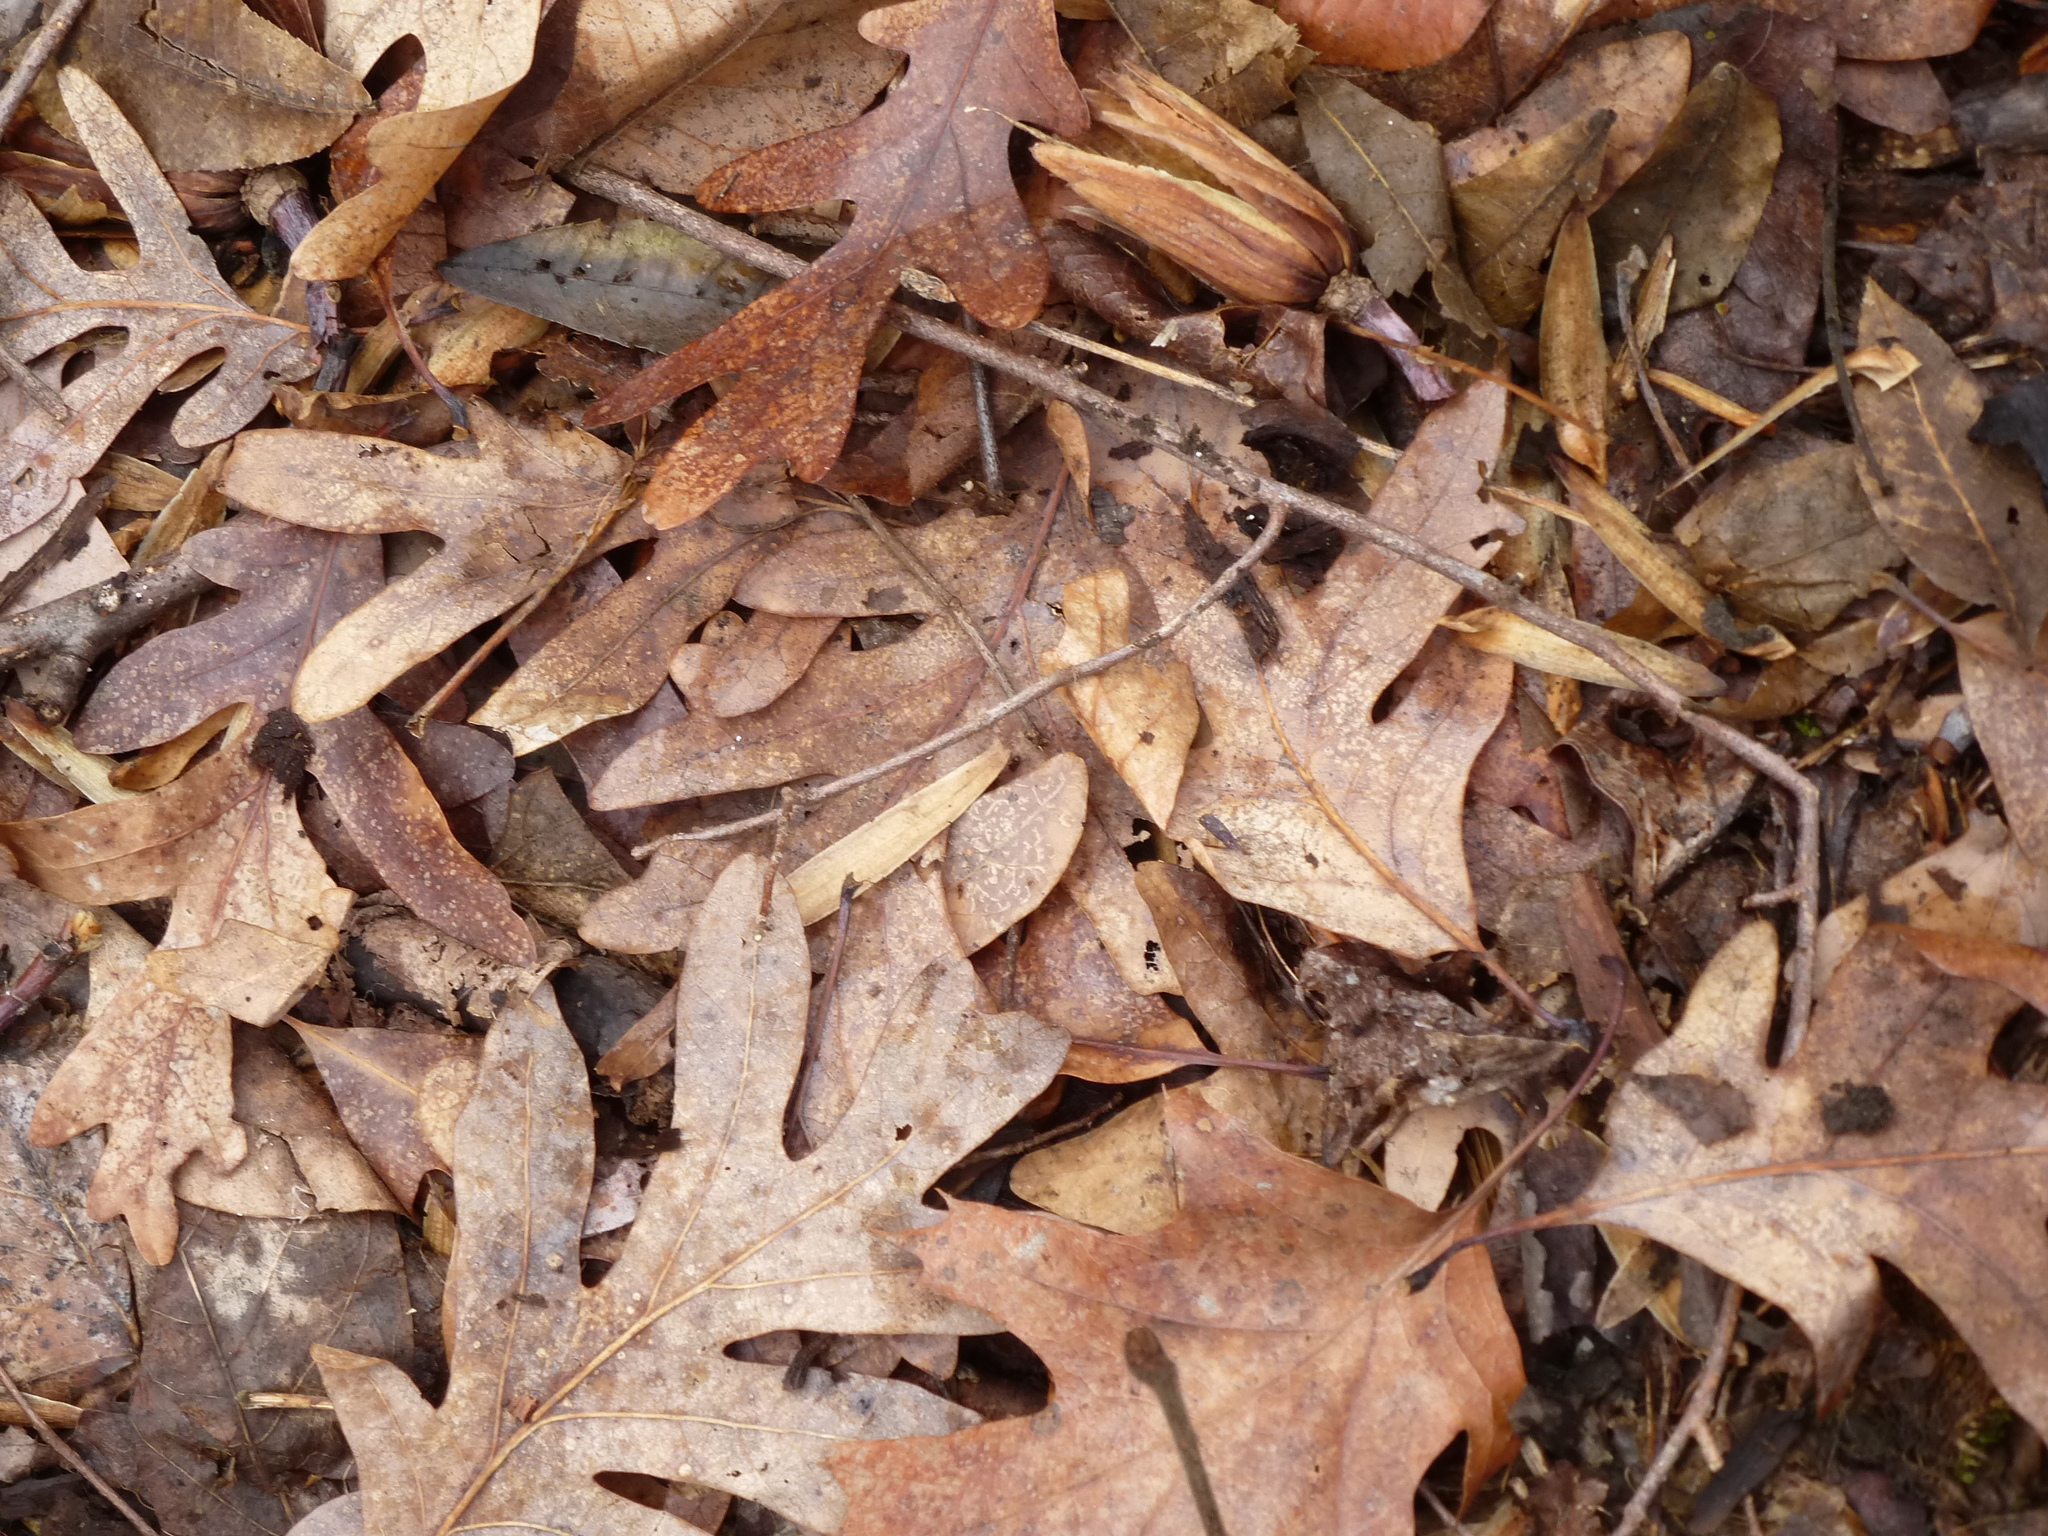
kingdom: Plantae
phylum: Tracheophyta
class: Magnoliopsida
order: Fagales
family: Fagaceae
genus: Quercus
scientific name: Quercus alba
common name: White oak
